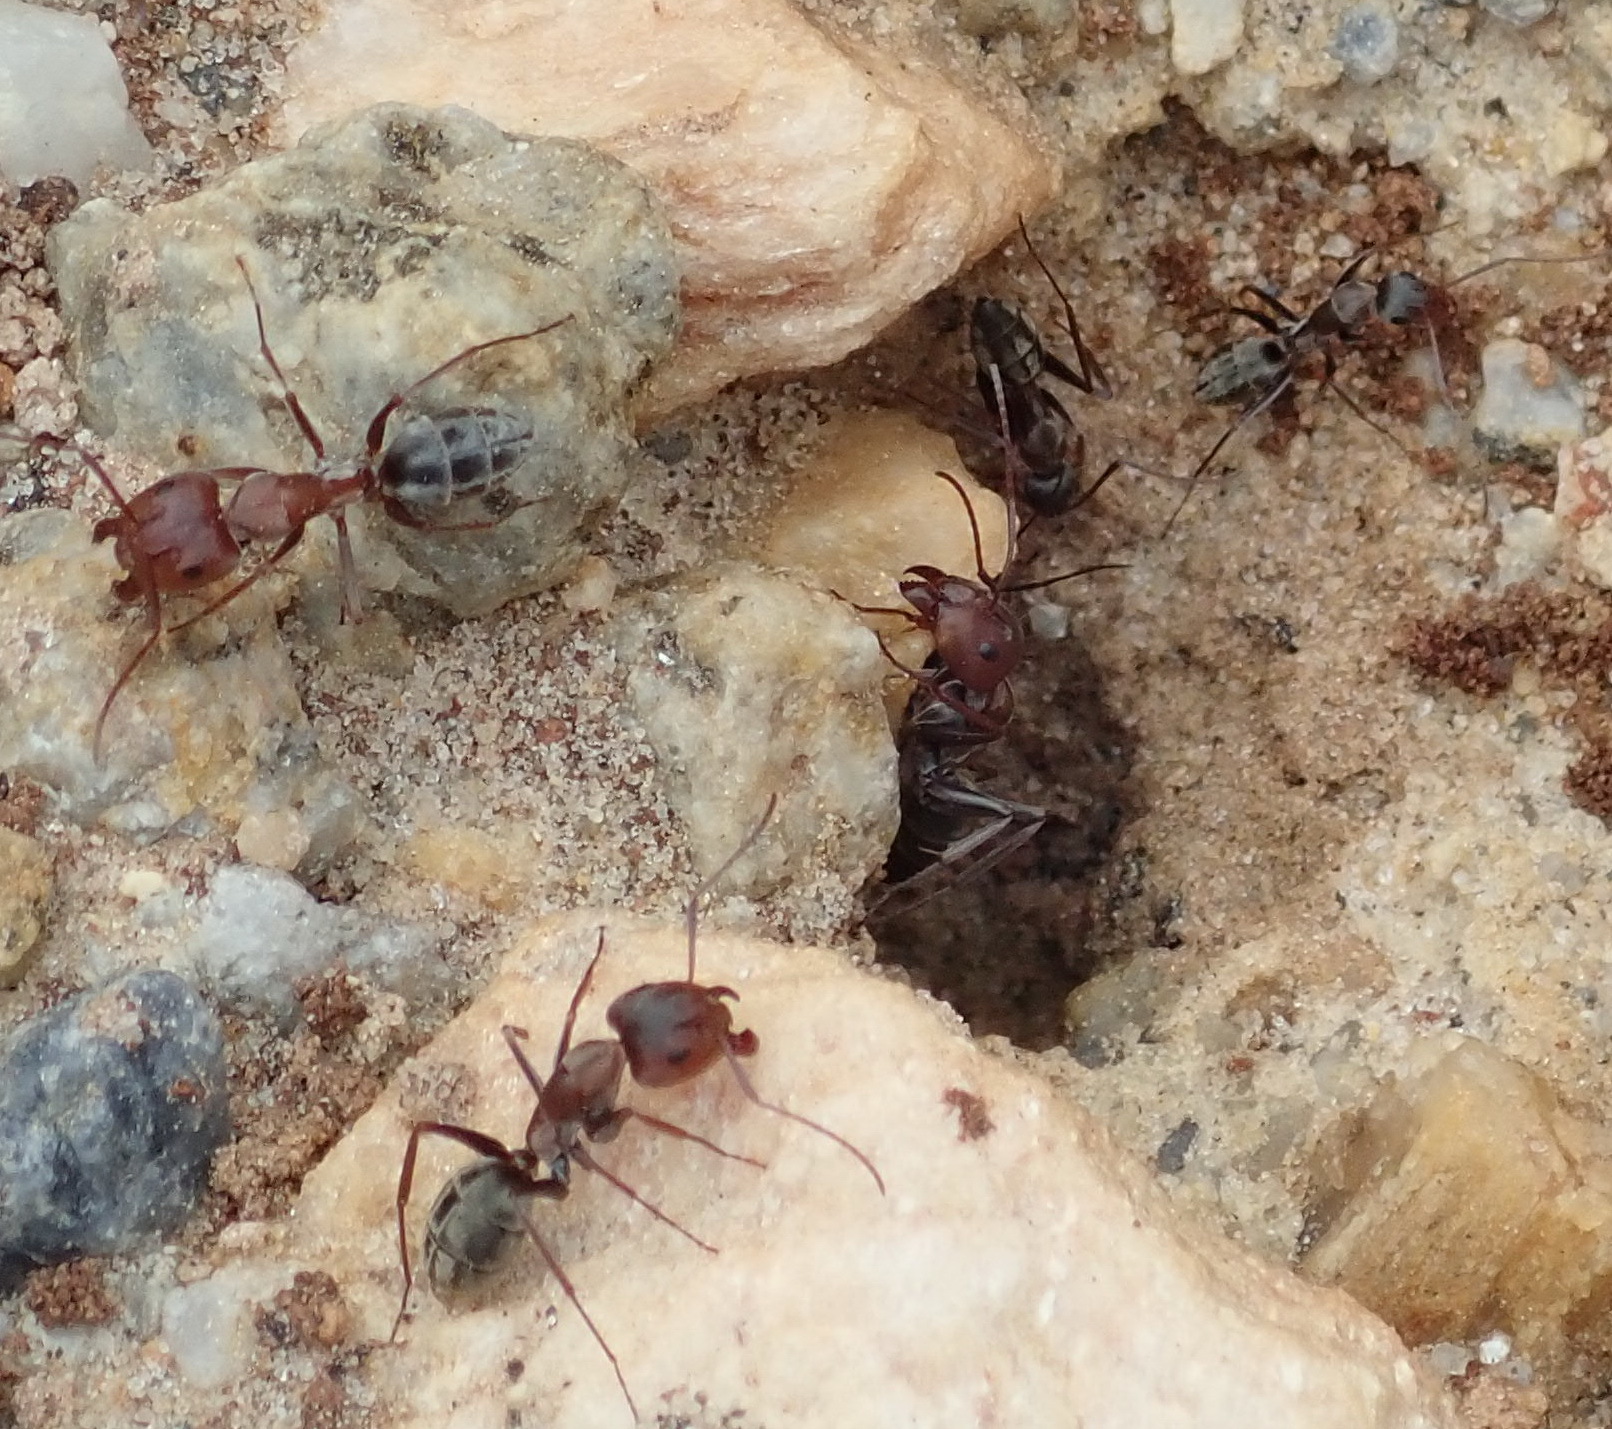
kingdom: Animalia
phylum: Arthropoda
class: Insecta
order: Hymenoptera
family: Formicidae
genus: Camponotus
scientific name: Camponotus vestitus
